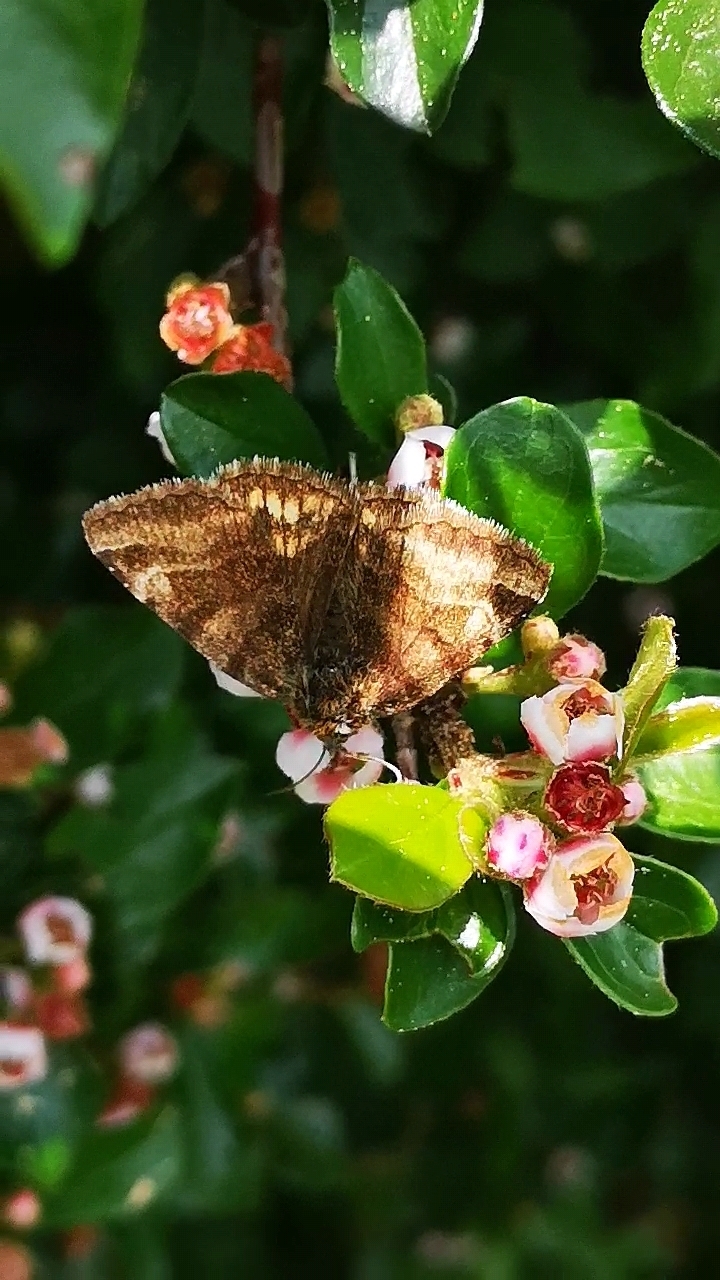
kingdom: Animalia
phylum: Arthropoda
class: Insecta
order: Lepidoptera
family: Erebidae
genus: Euclidia
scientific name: Euclidia glyphica
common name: Burnet companion
